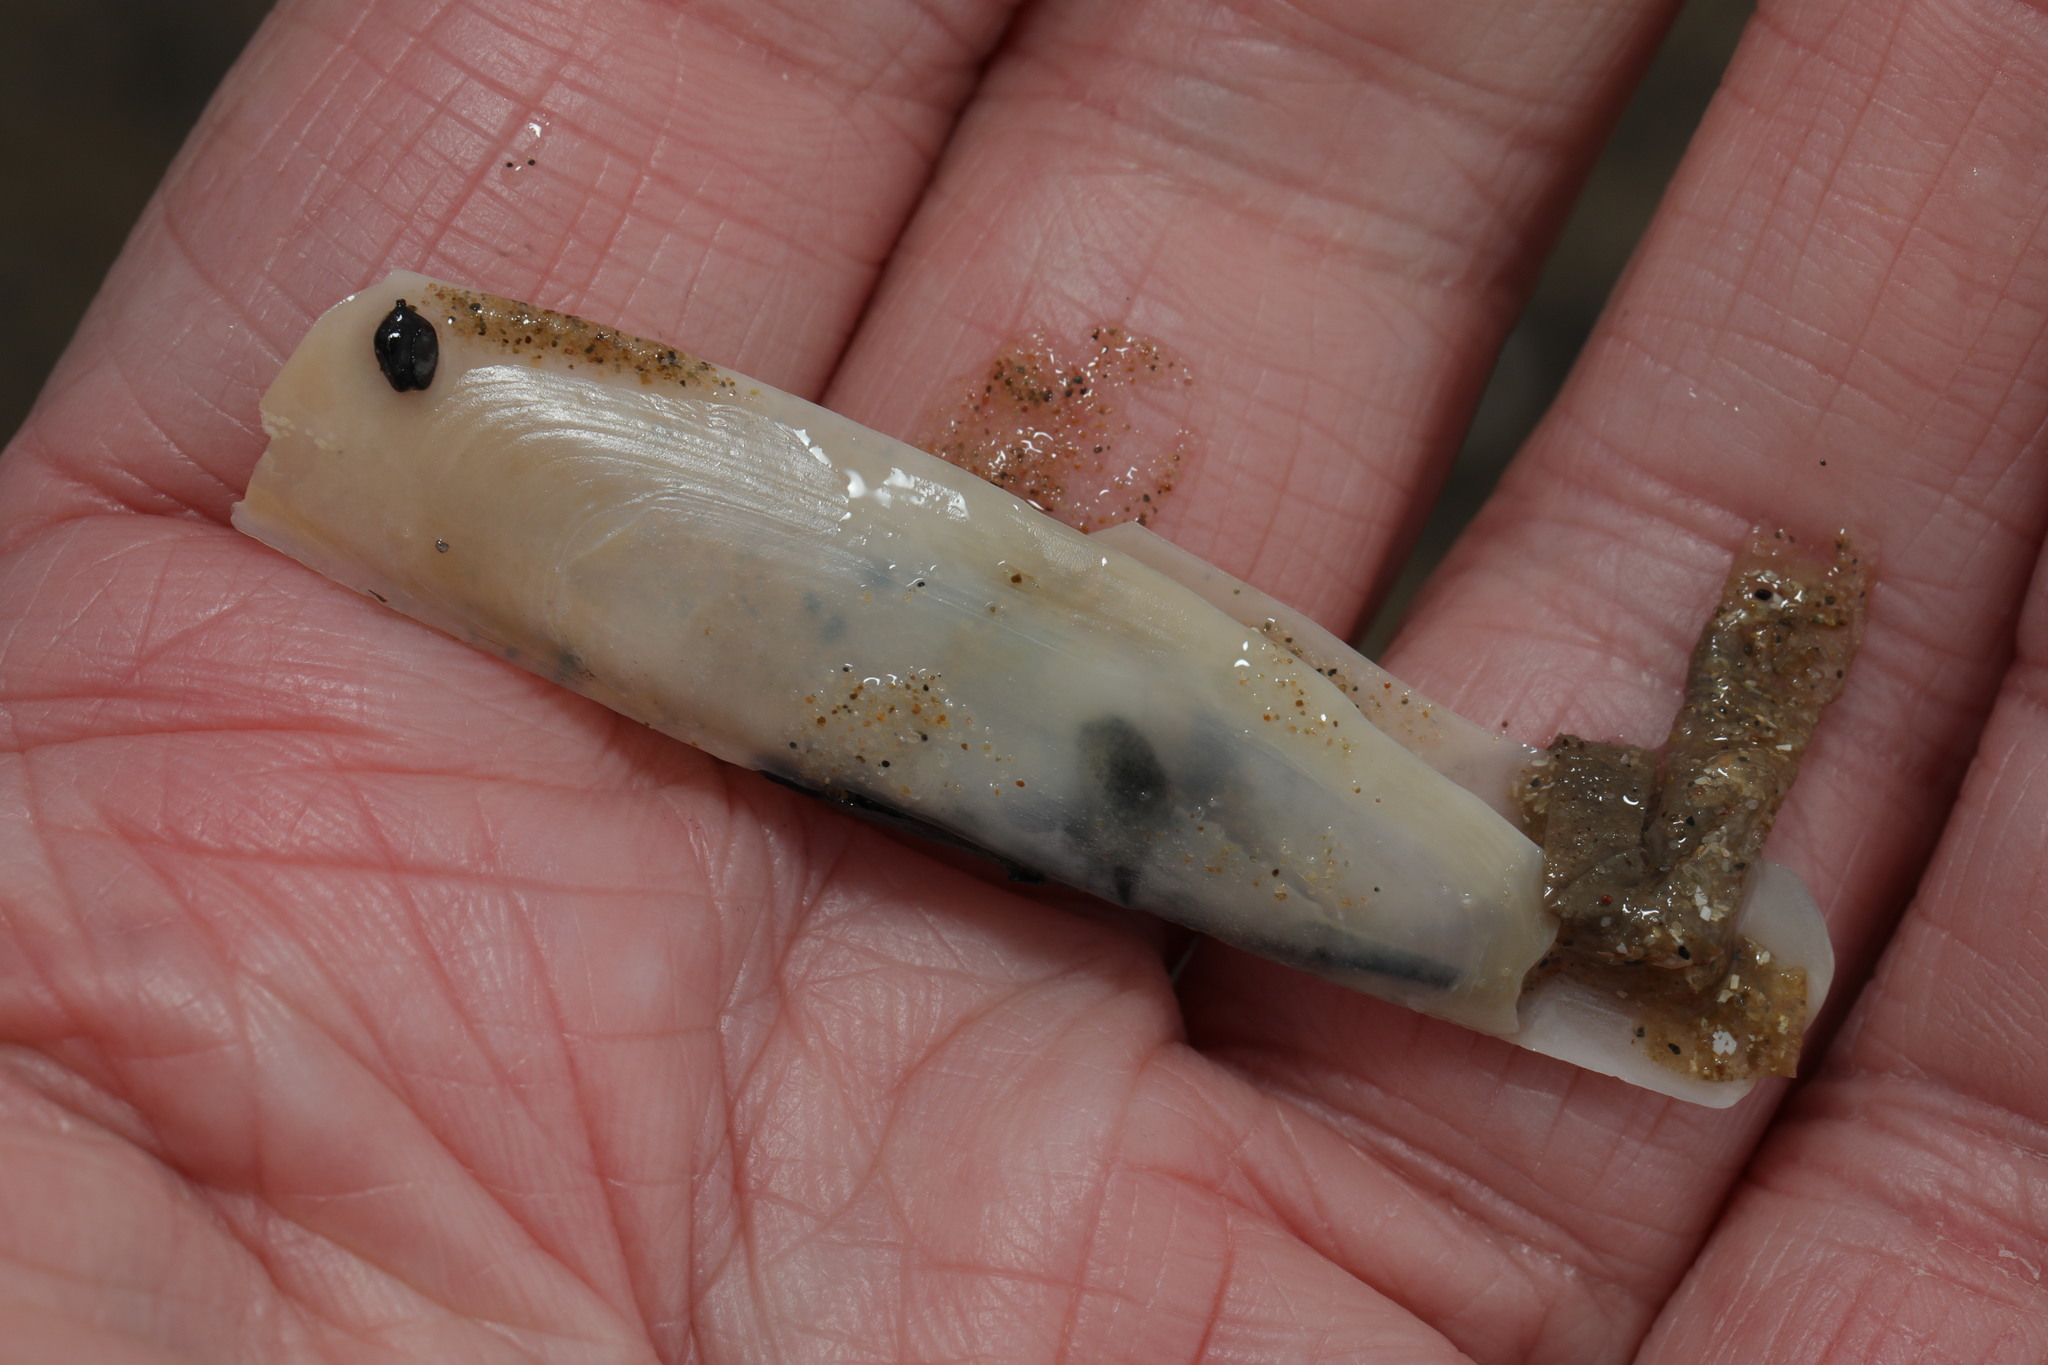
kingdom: Animalia
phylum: Mollusca
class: Bivalvia
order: Adapedonta
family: Pharidae
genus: Pharus
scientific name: Pharus legumen
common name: Bean razor clam
